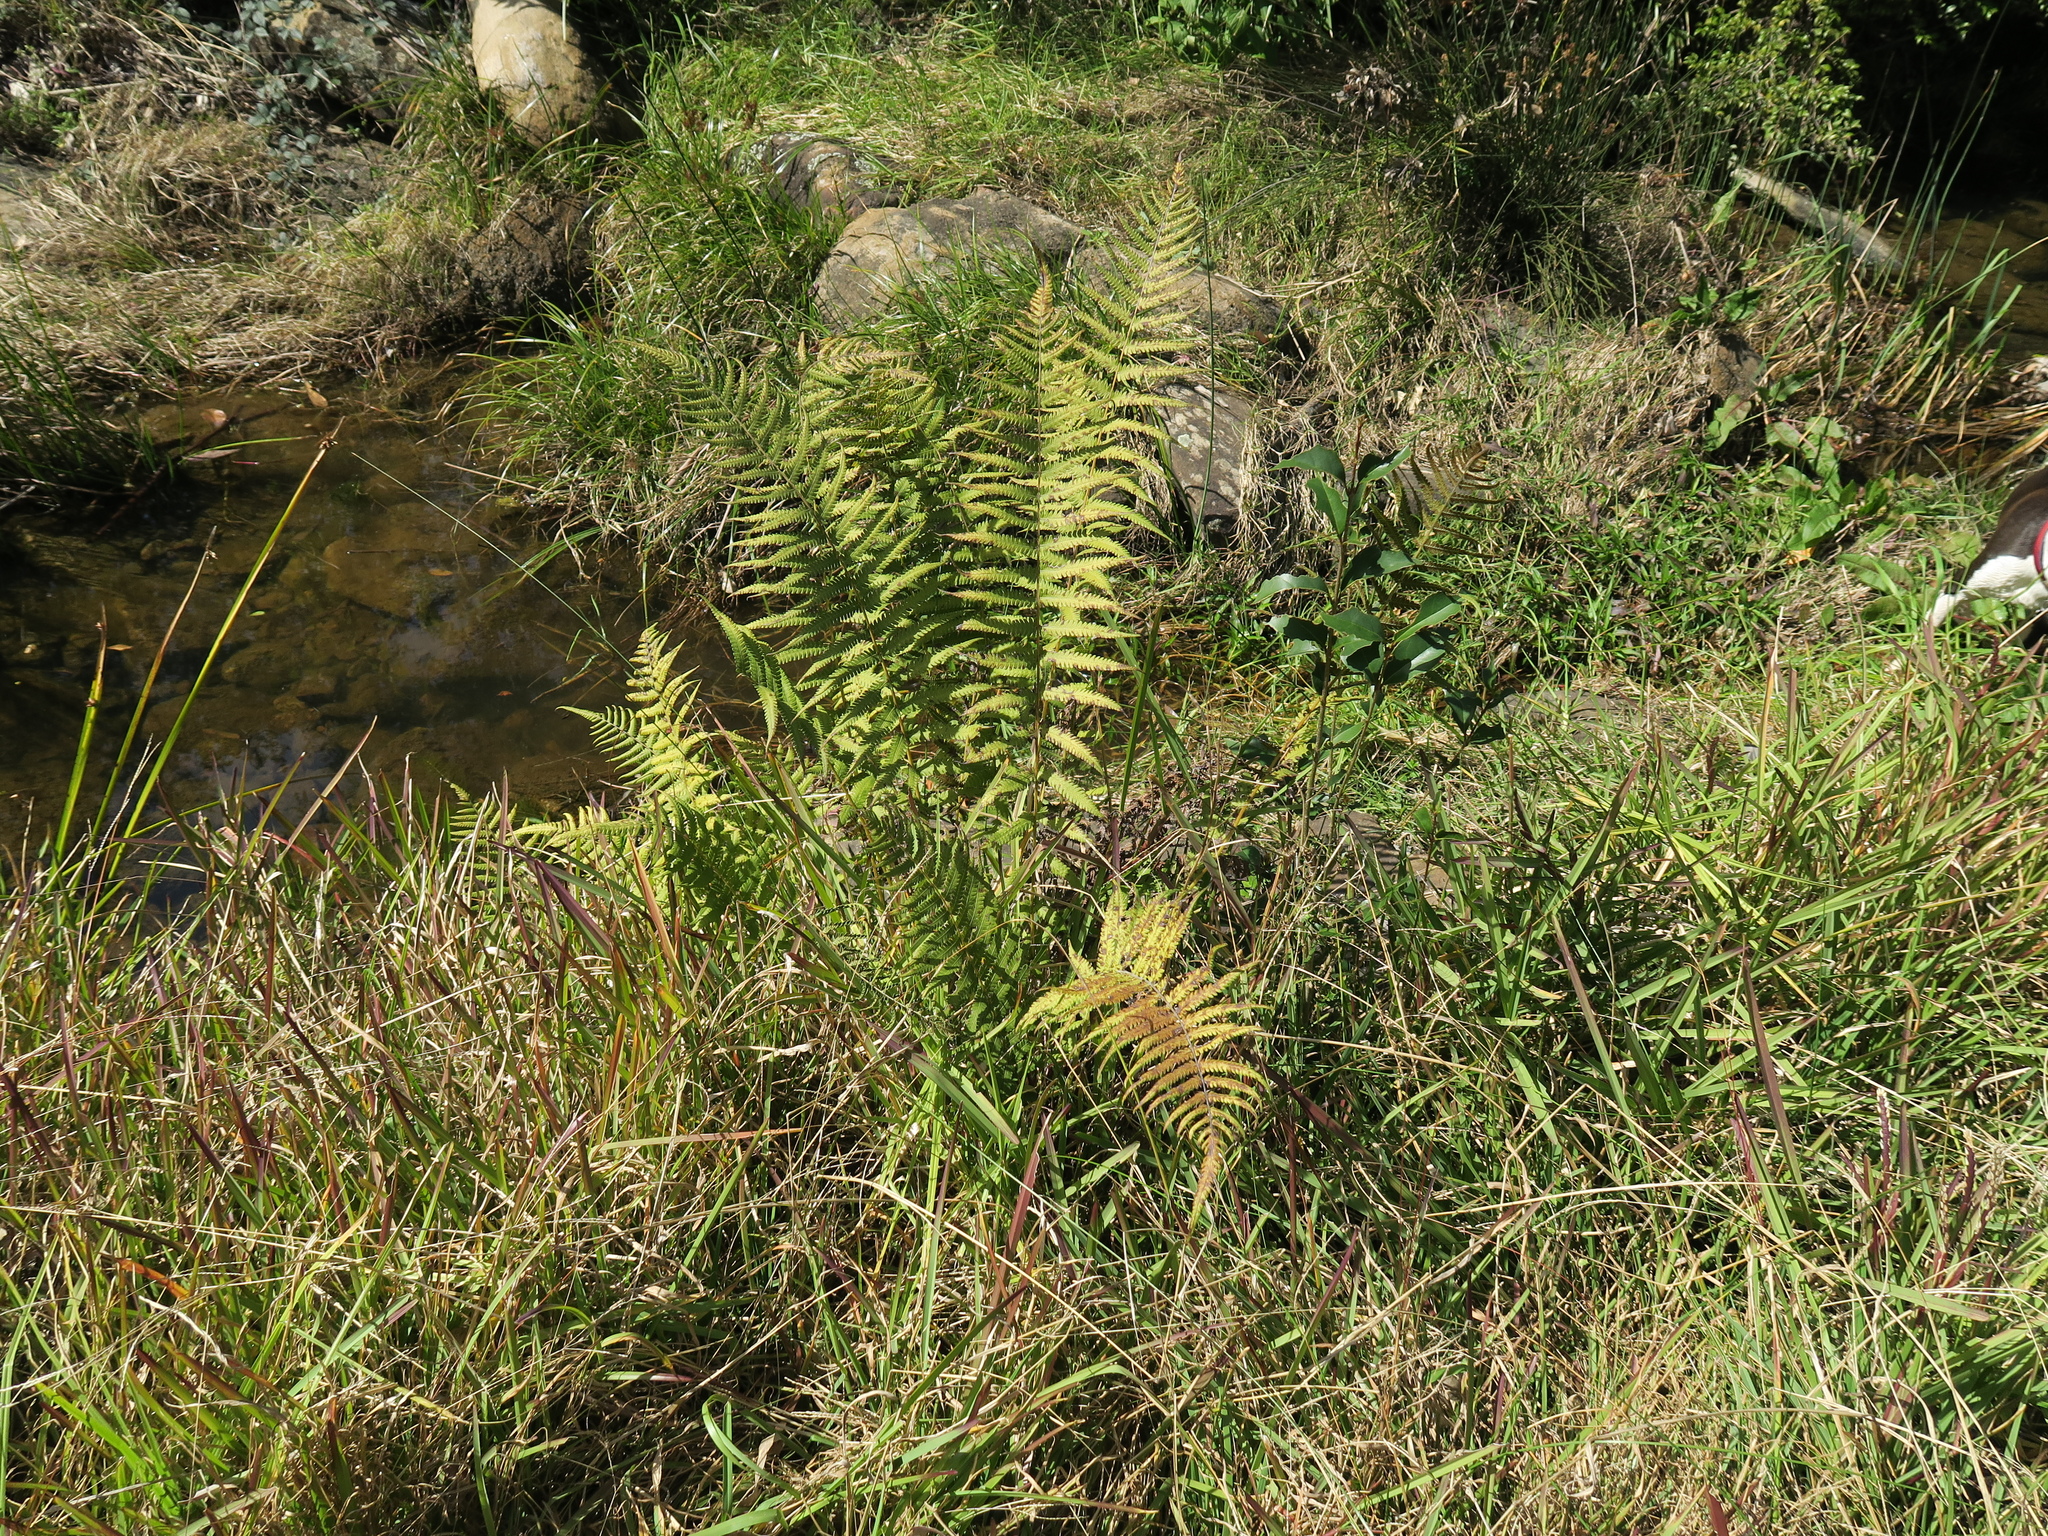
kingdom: Plantae
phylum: Tracheophyta
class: Polypodiopsida
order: Polypodiales
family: Thelypteridaceae
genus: Christella
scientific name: Christella dentata
